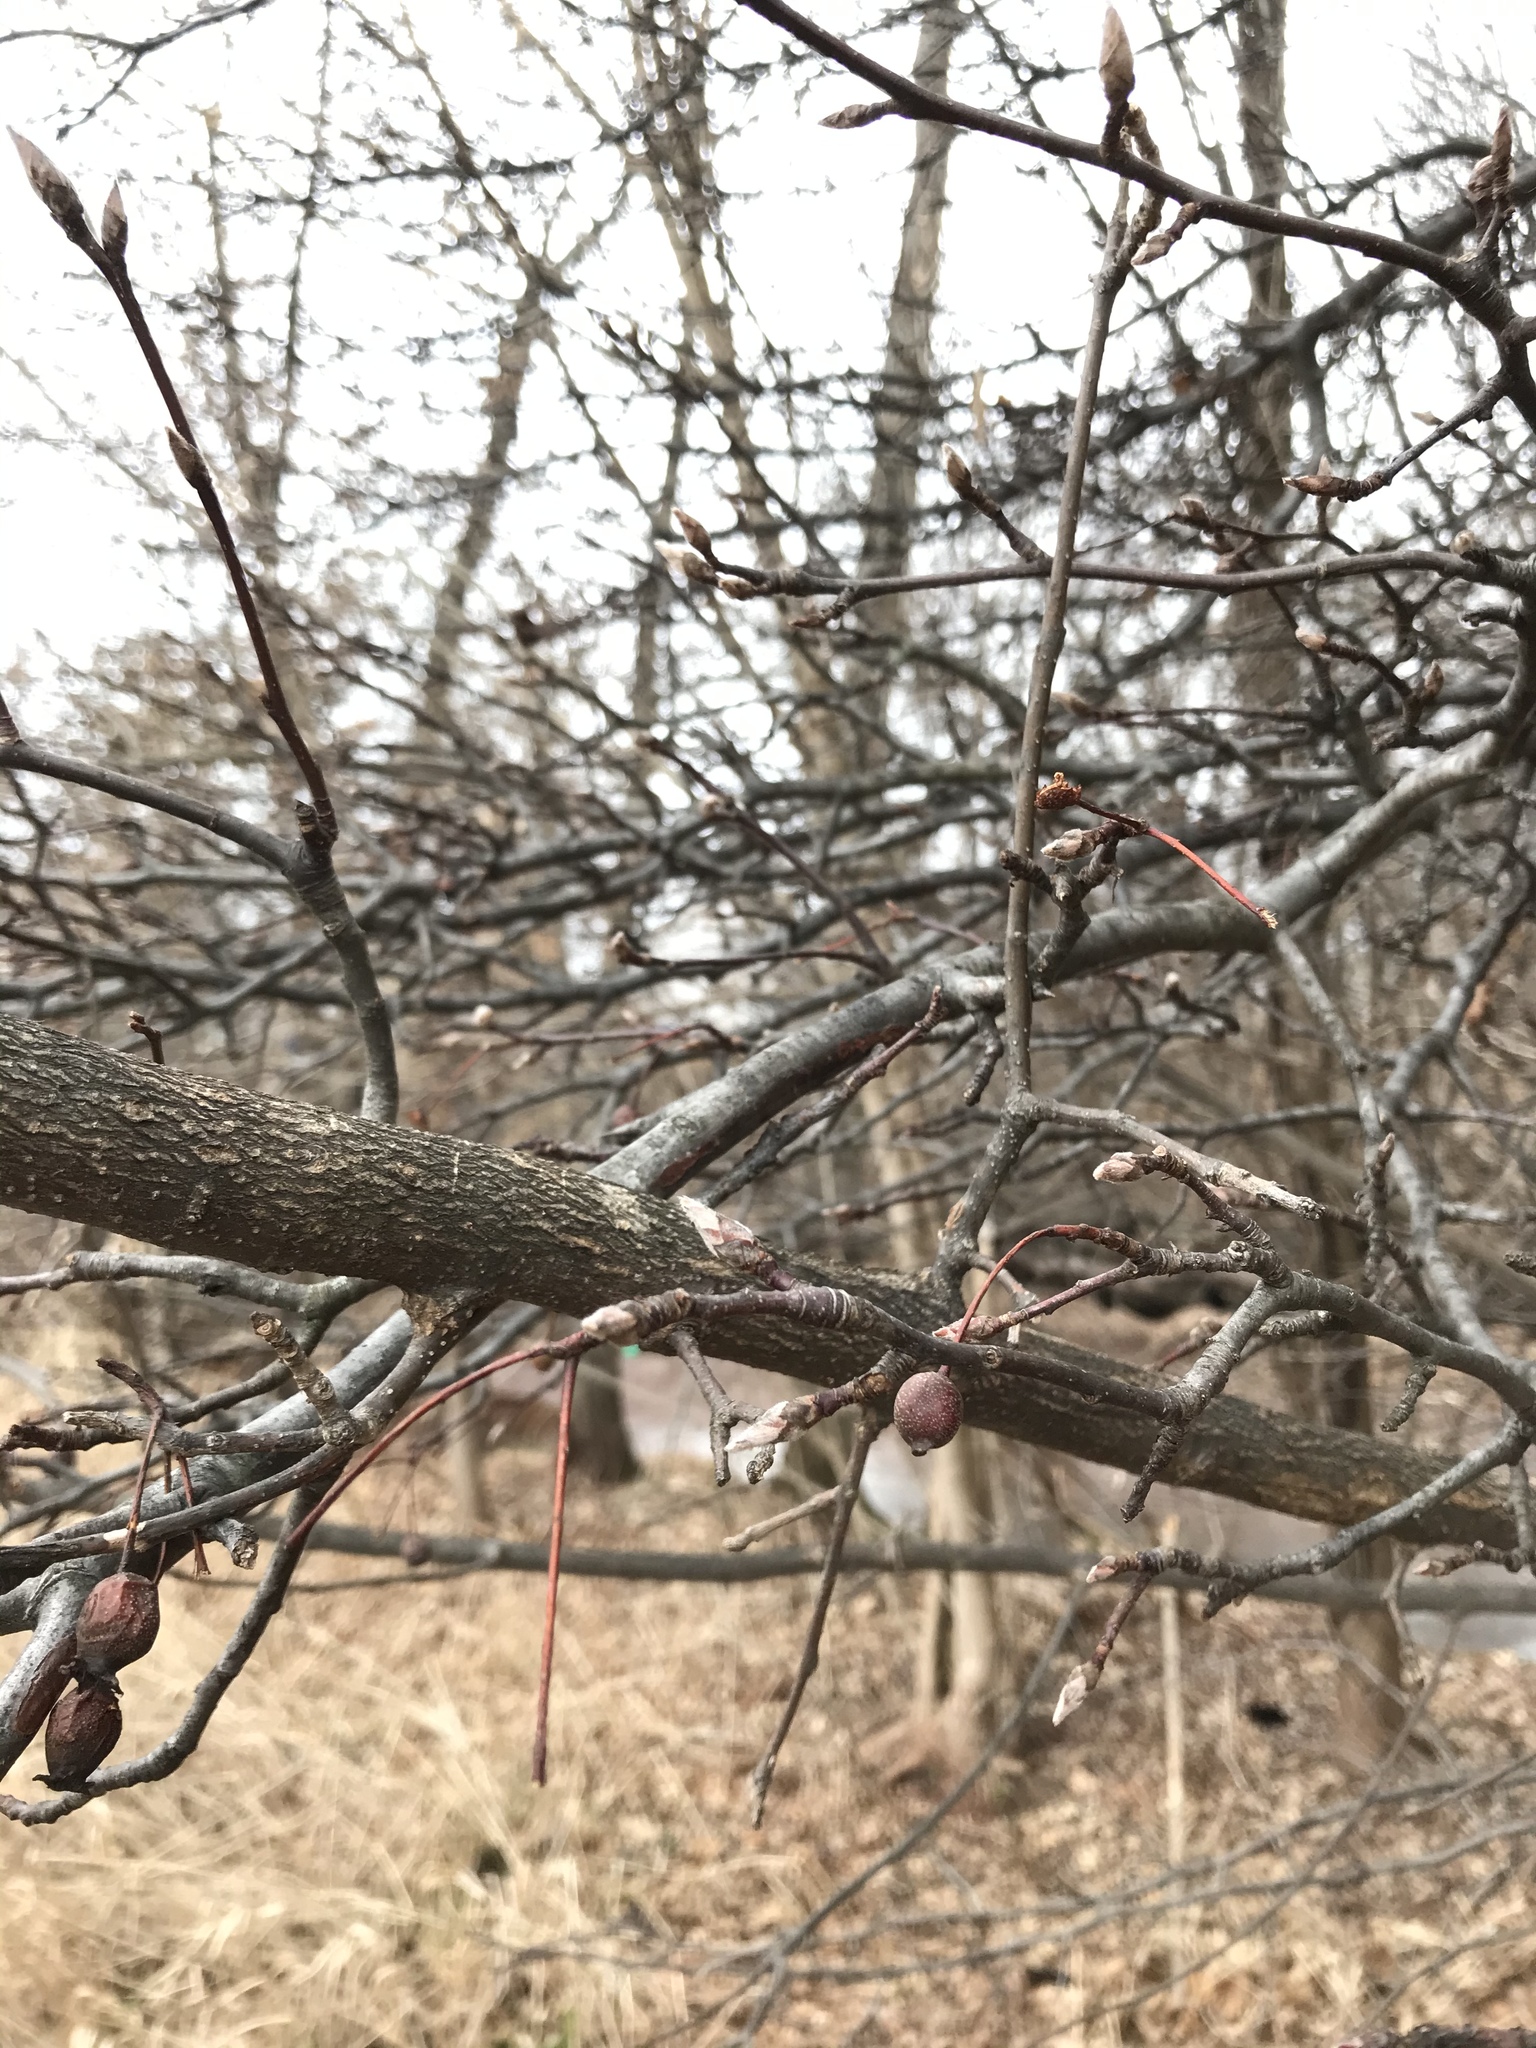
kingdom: Plantae
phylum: Tracheophyta
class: Magnoliopsida
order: Rosales
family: Rosaceae
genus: Pyrus
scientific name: Pyrus calleryana
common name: Callery pear
